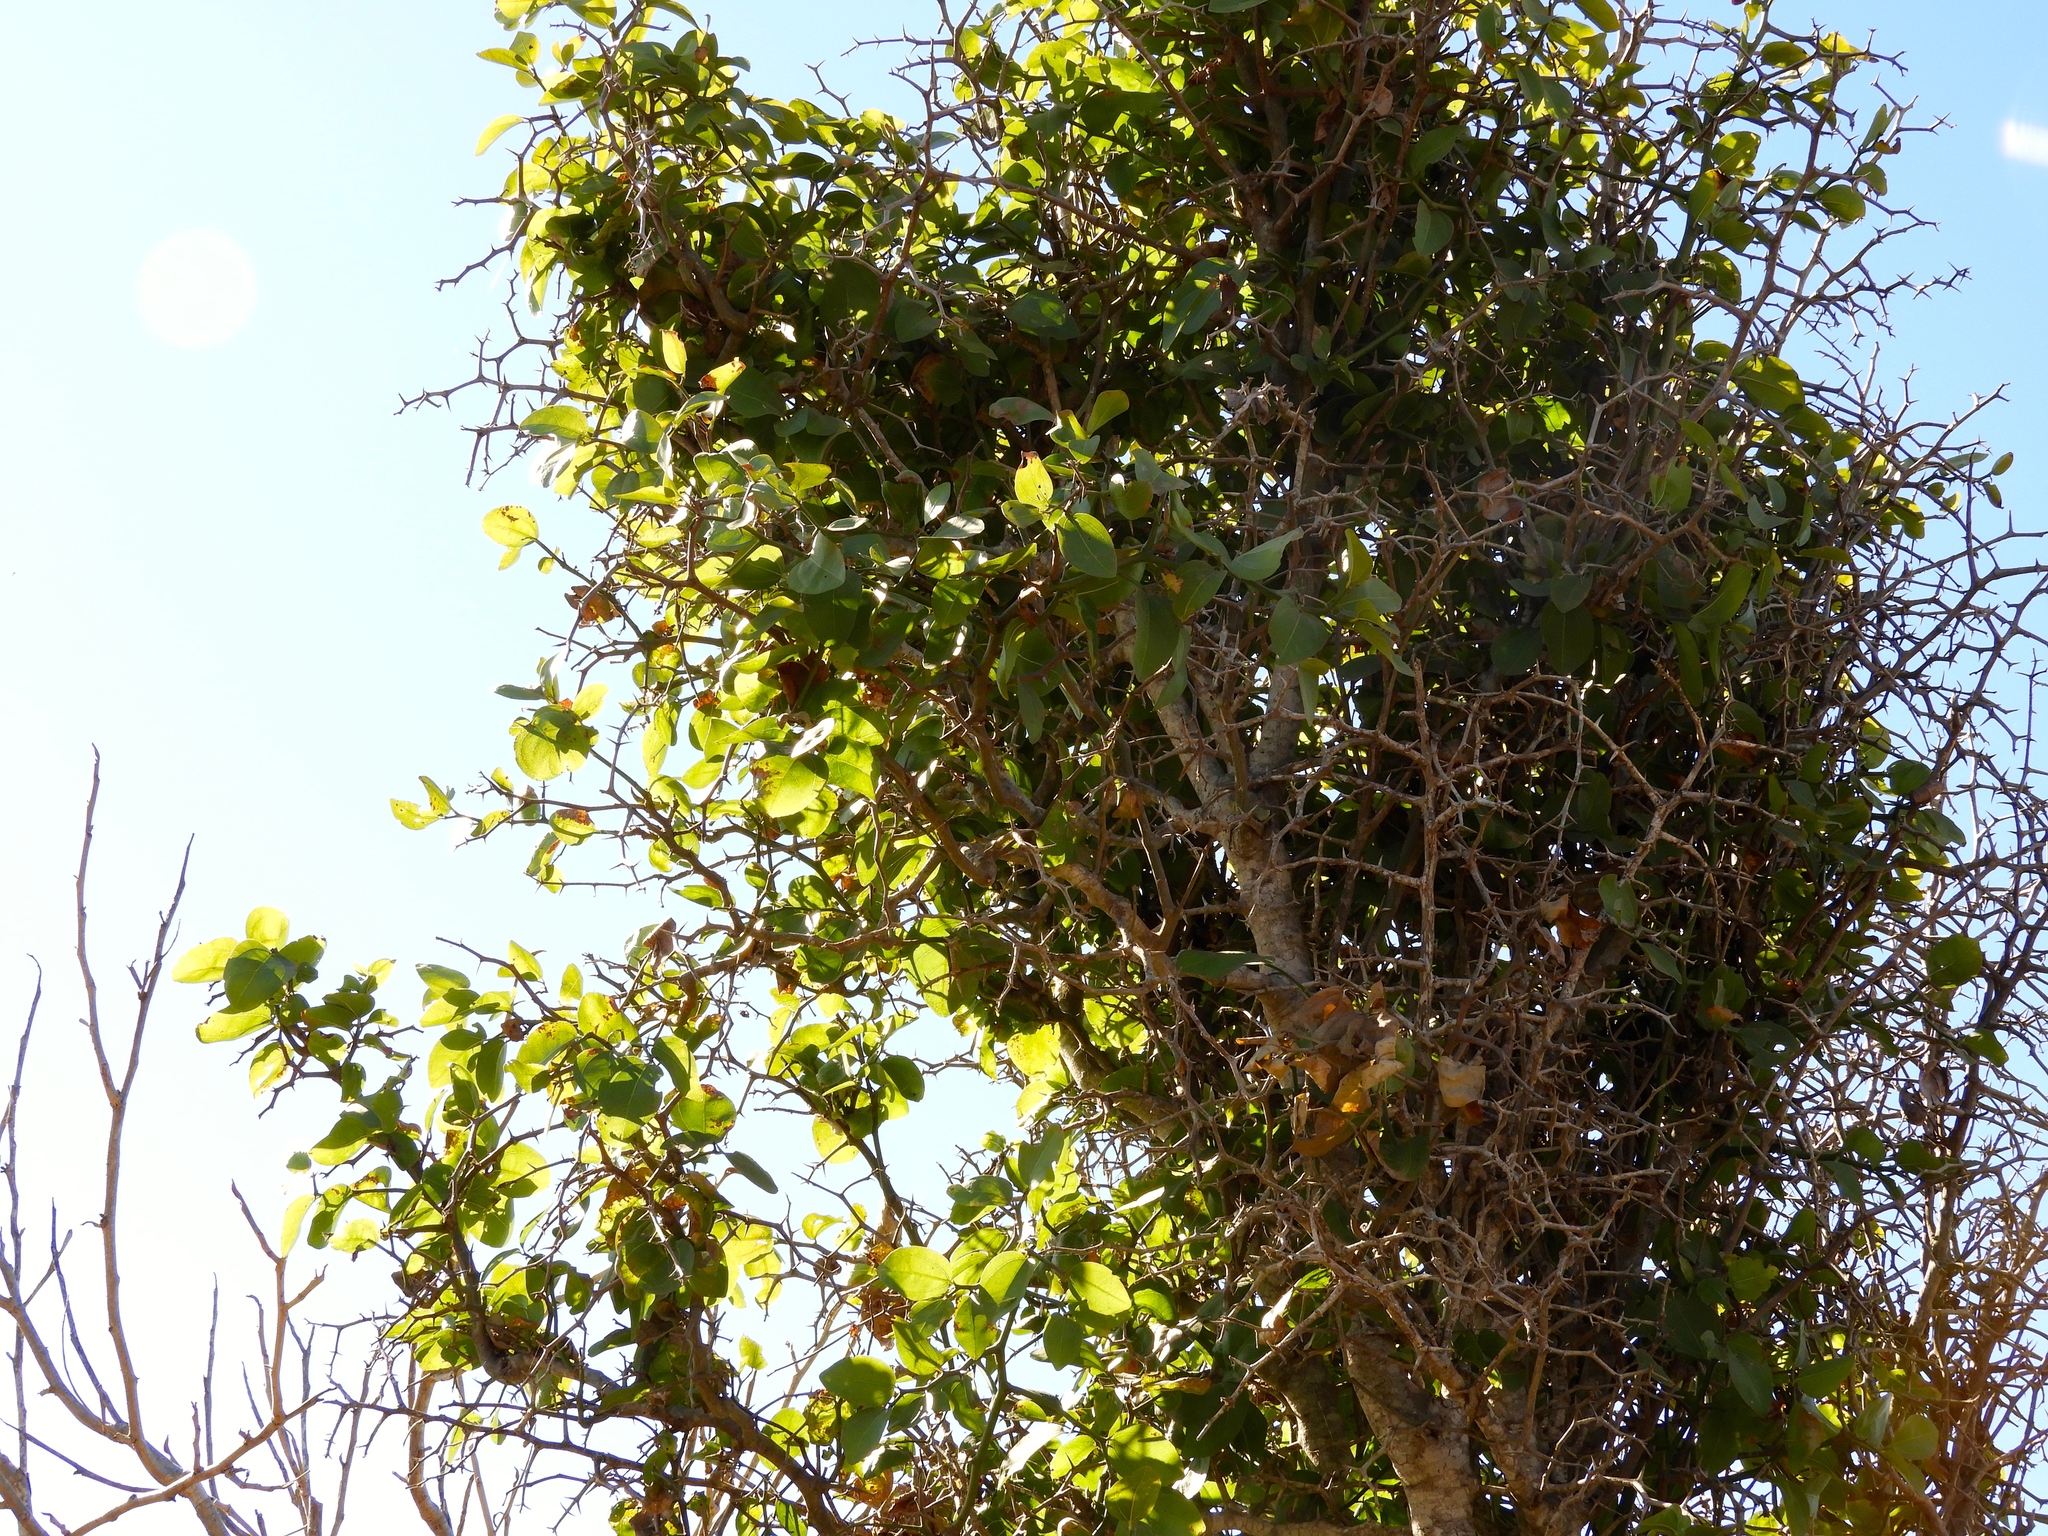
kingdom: Plantae
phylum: Tracheophyta
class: Magnoliopsida
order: Rosales
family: Rhamnaceae
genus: Sarcomphalus
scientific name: Sarcomphalus amole
